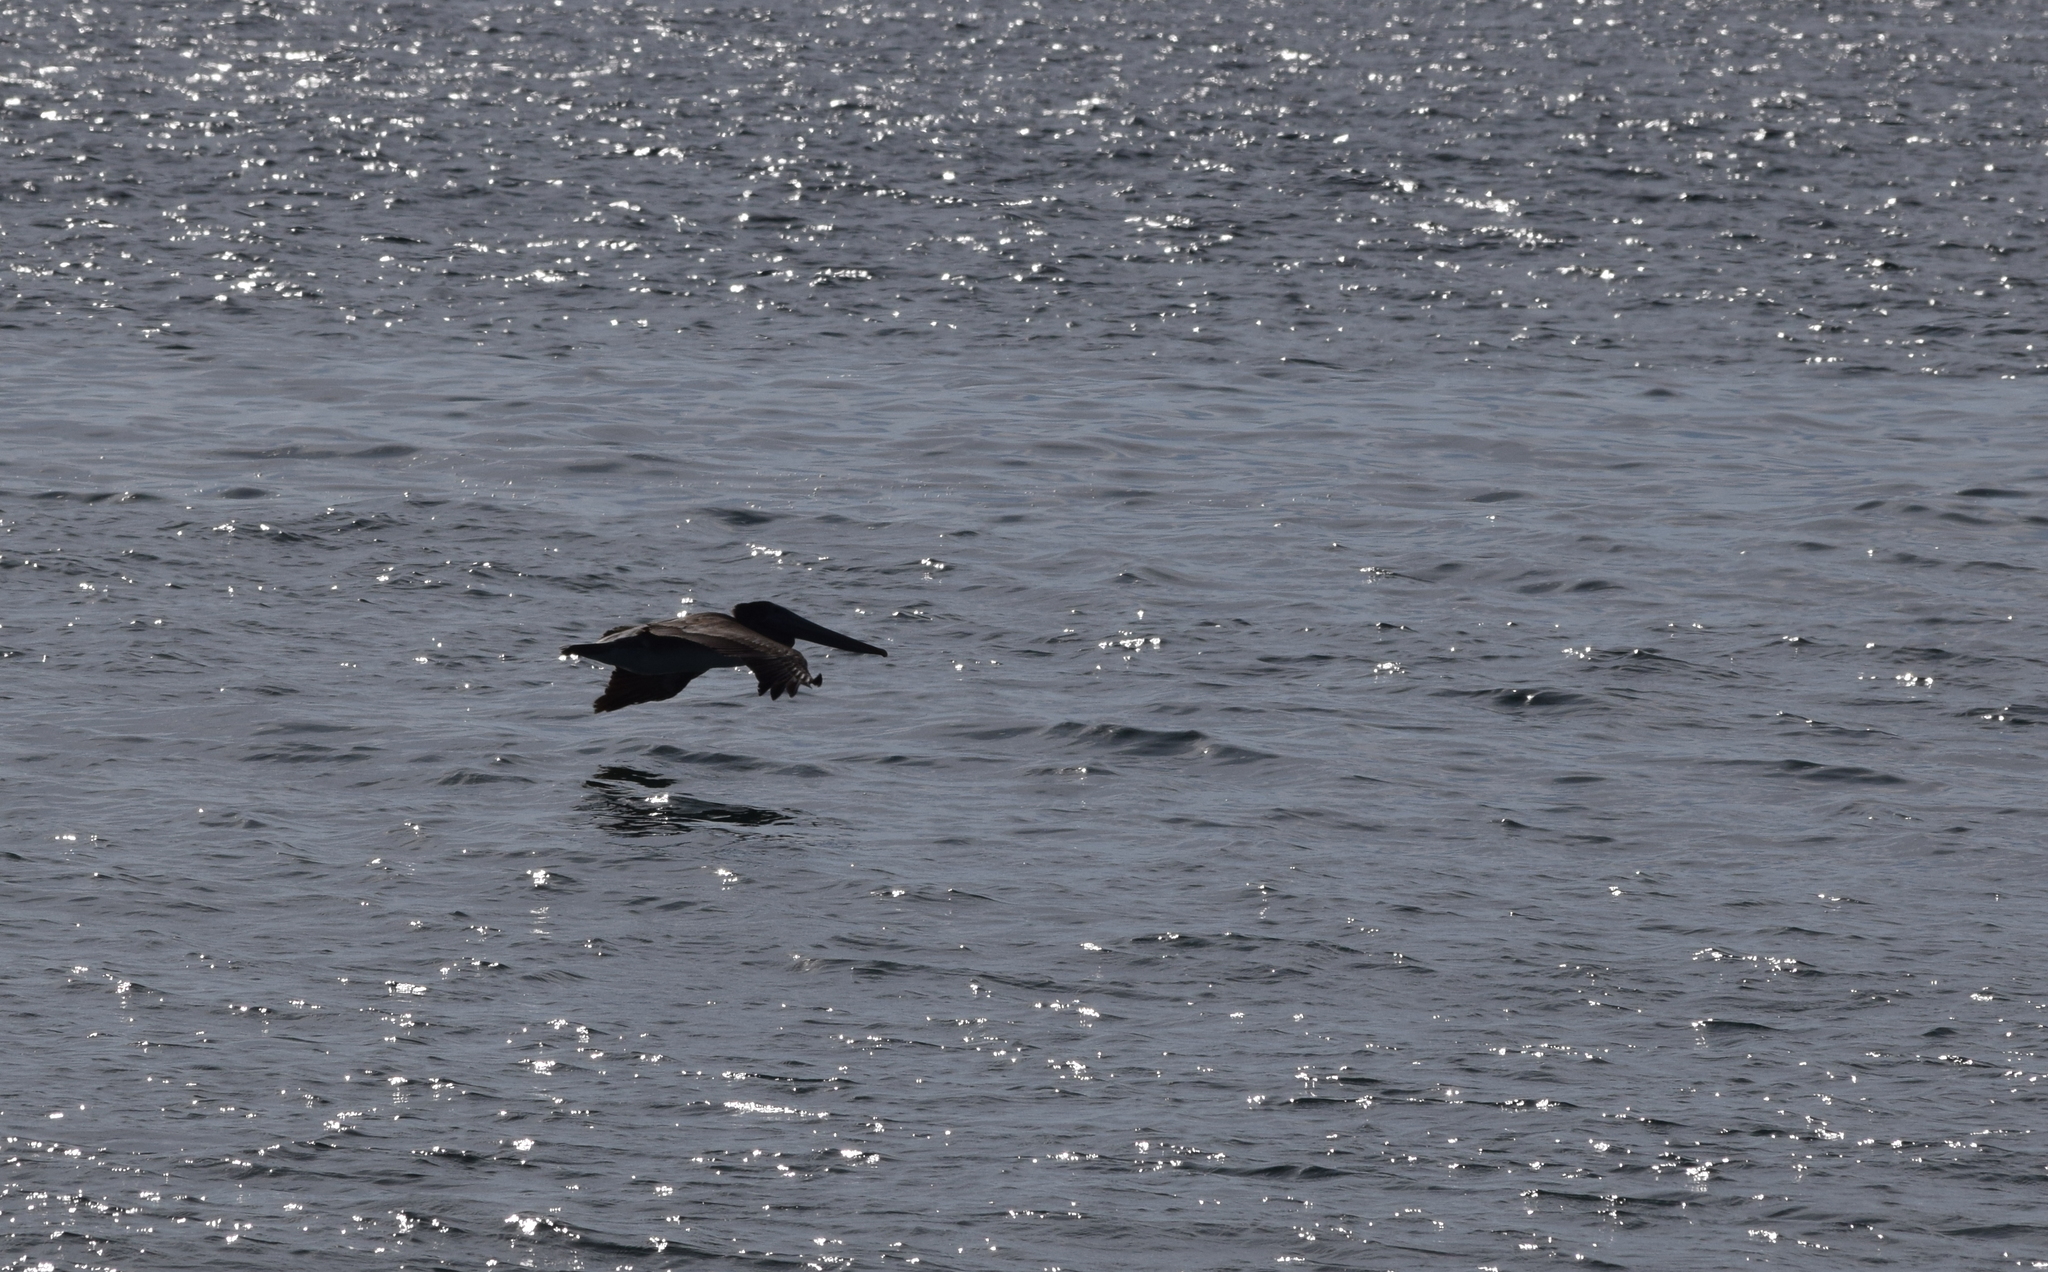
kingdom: Animalia
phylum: Chordata
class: Aves
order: Pelecaniformes
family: Pelecanidae
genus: Pelecanus
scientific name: Pelecanus occidentalis
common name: Brown pelican
